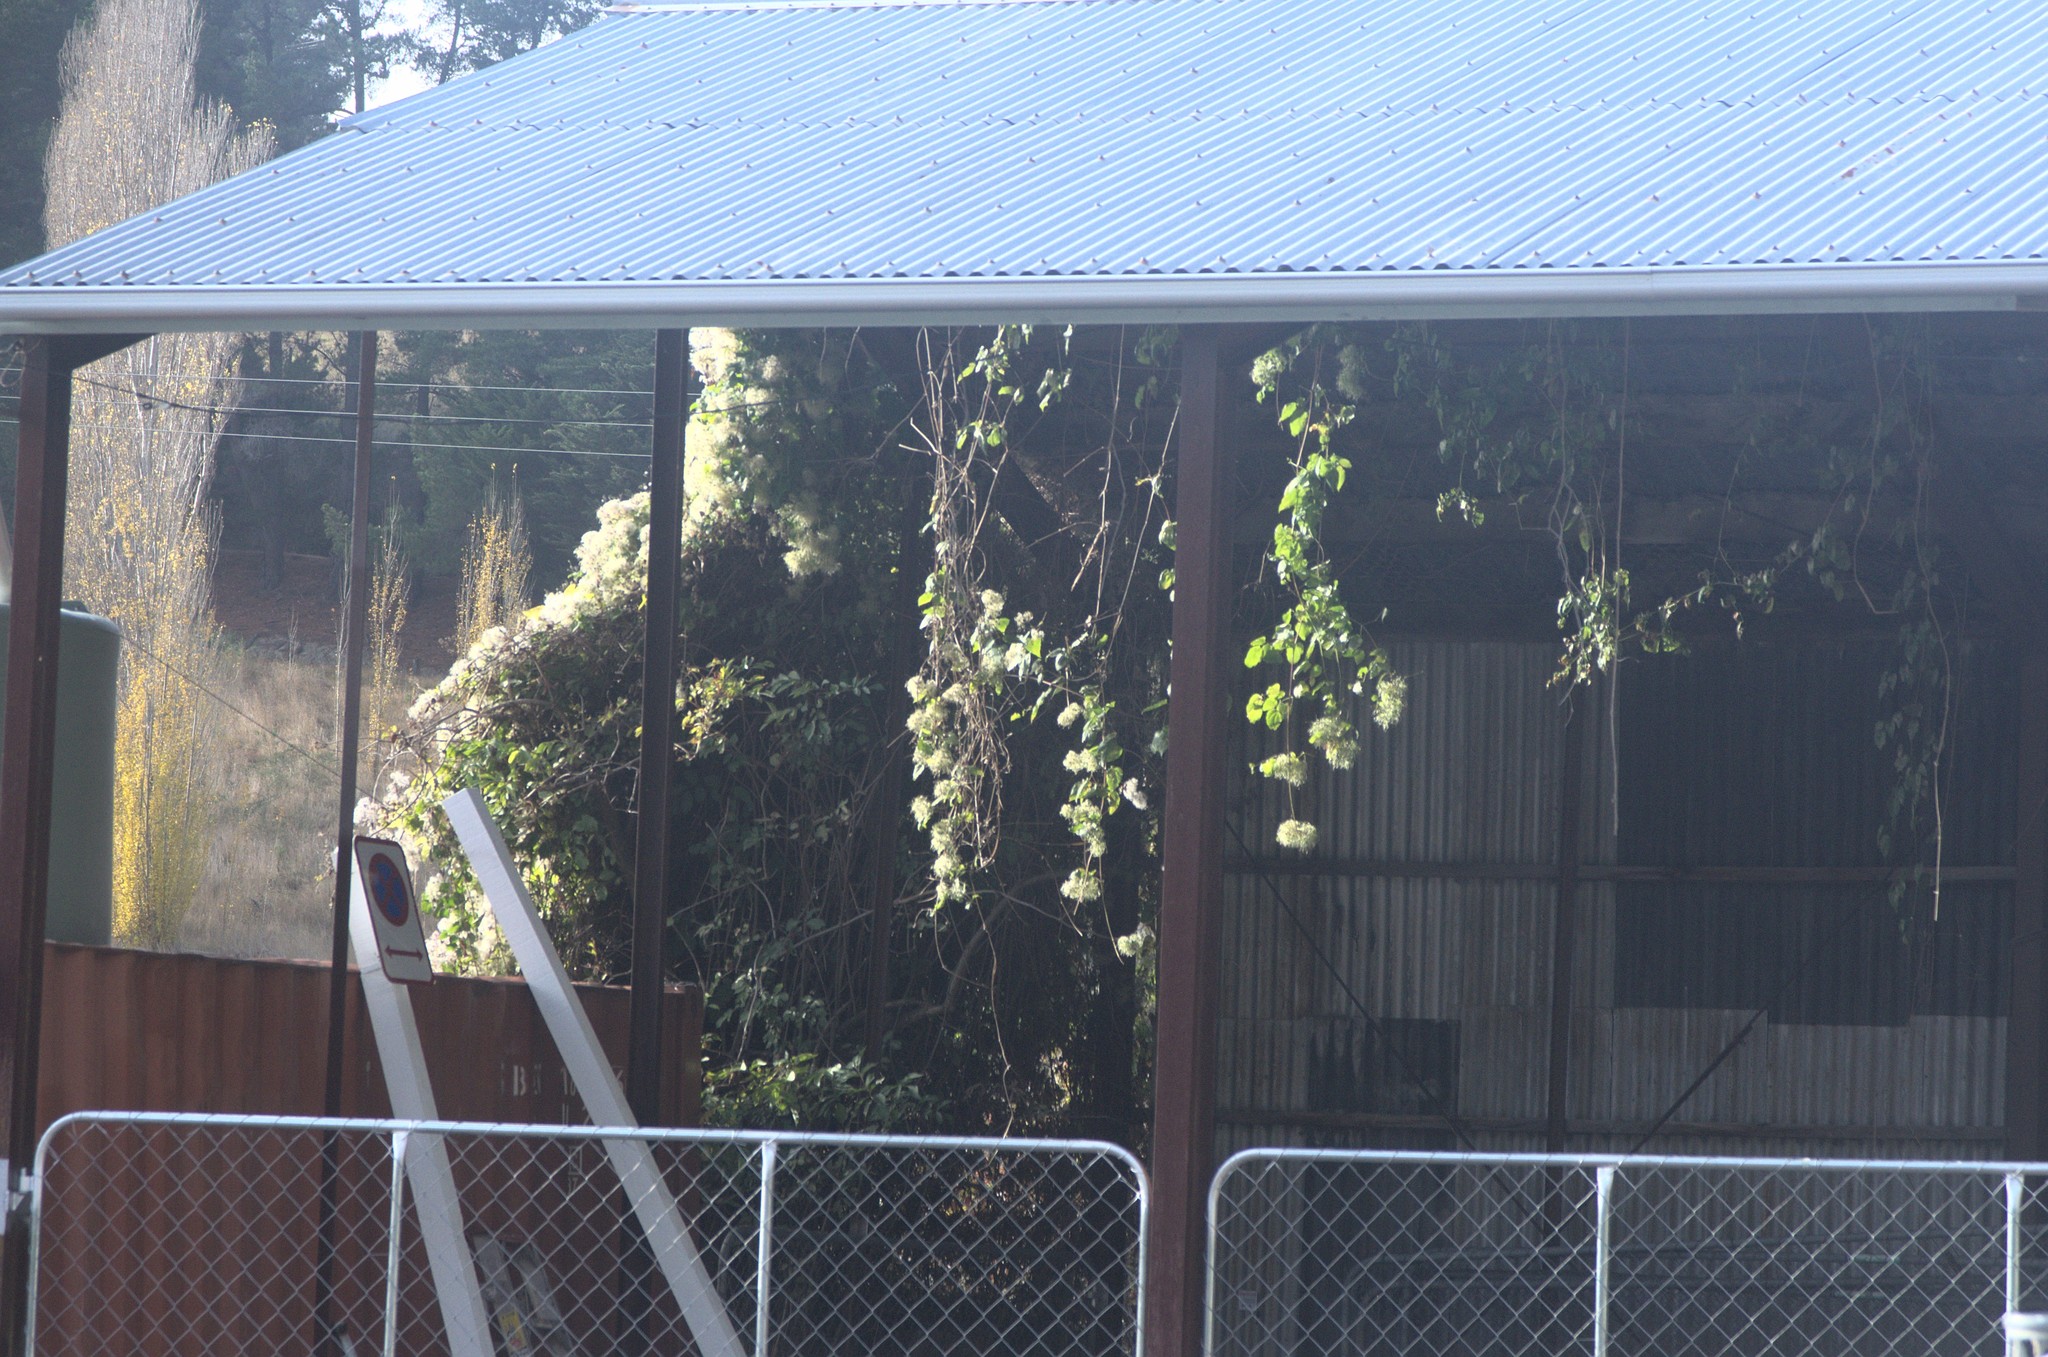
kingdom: Plantae
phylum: Tracheophyta
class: Magnoliopsida
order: Ranunculales
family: Ranunculaceae
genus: Clematis
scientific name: Clematis vitalba
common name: Evergreen clematis
